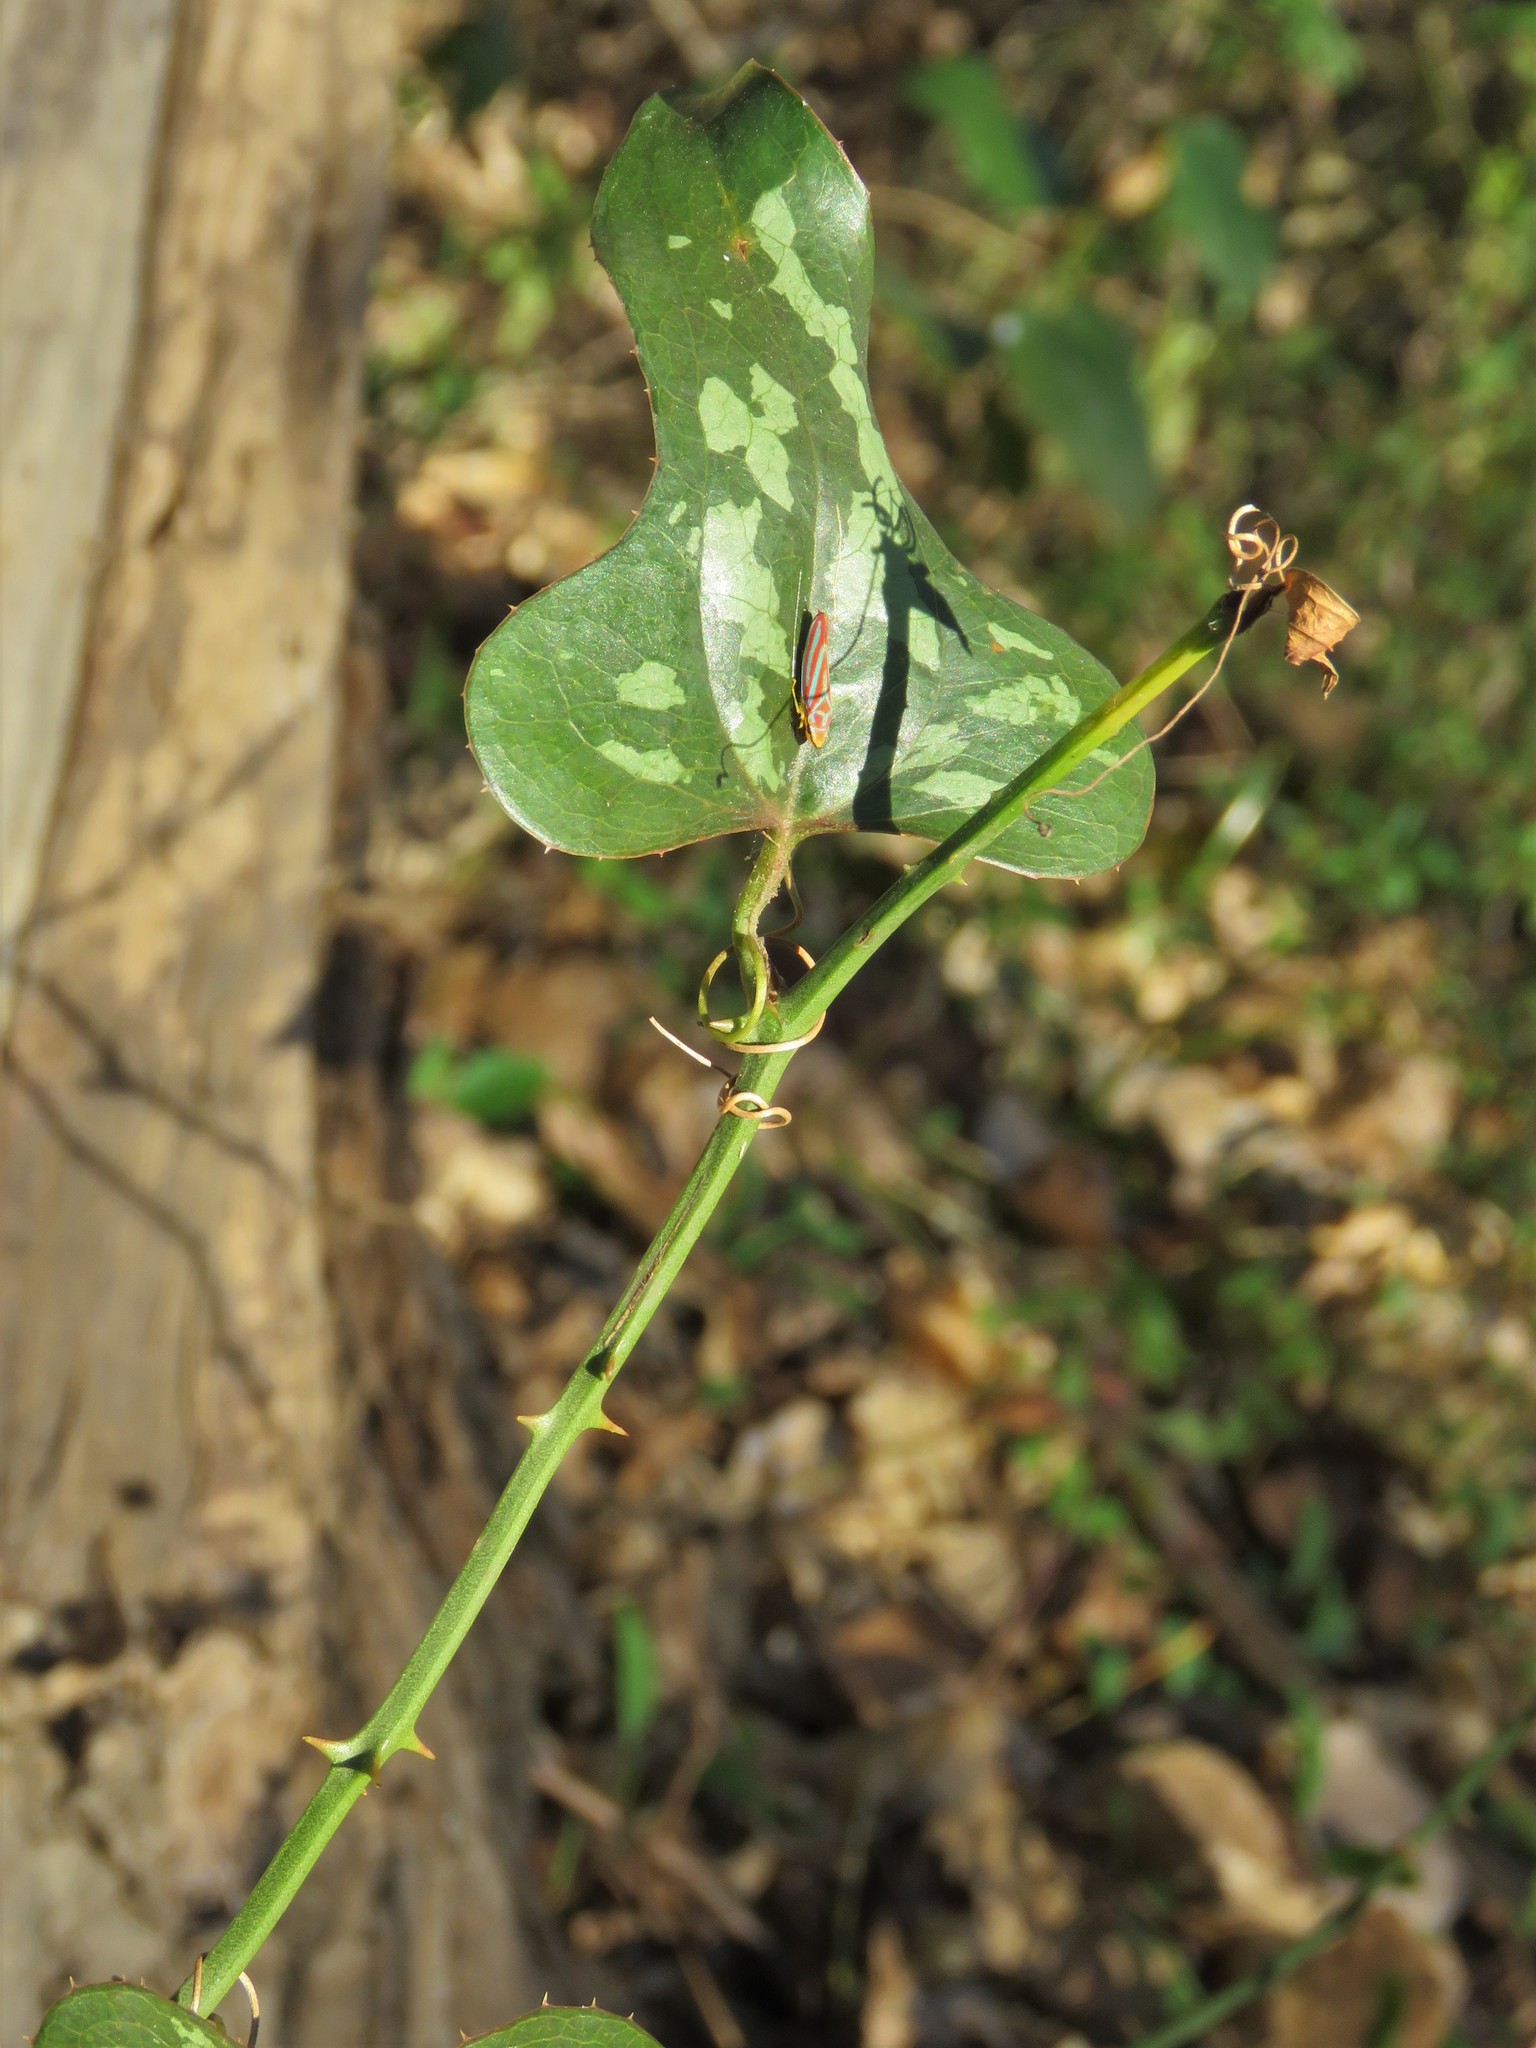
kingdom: Plantae
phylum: Tracheophyta
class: Liliopsida
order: Liliales
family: Smilacaceae
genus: Smilax
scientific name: Smilax bona-nox
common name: Catbrier
